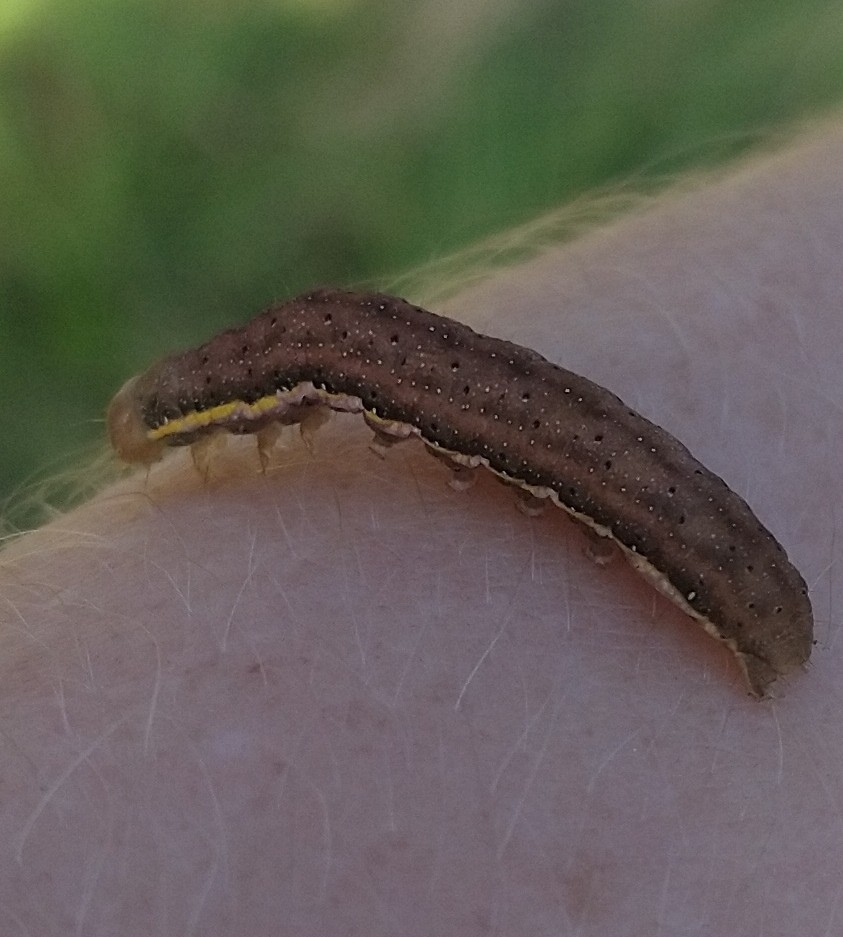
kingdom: Animalia
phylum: Arthropoda
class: Insecta
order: Lepidoptera
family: Noctuidae
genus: Lacanobia
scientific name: Lacanobia oleracea
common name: Bright-line brown-eye
